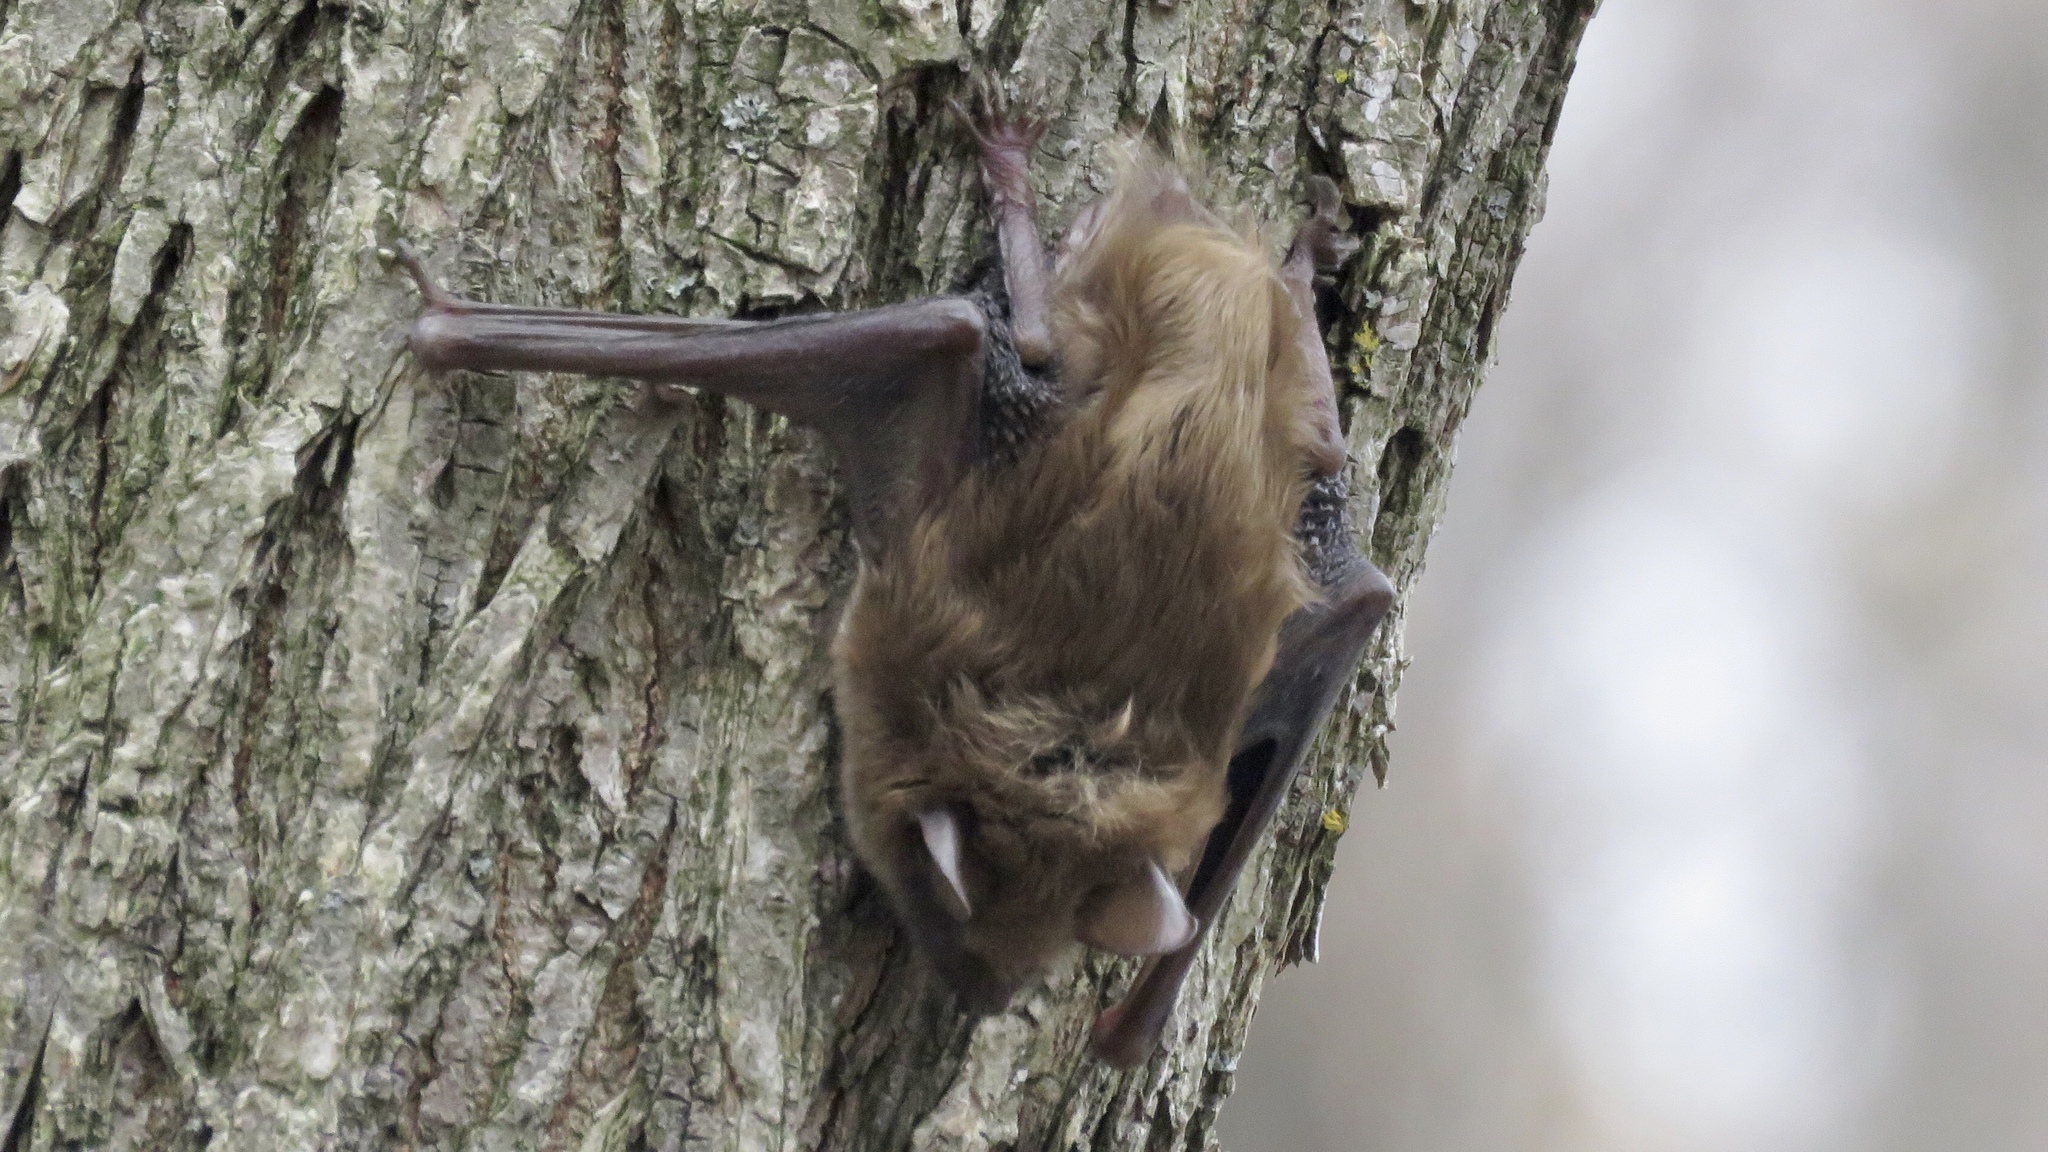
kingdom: Animalia
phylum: Chordata
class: Mammalia
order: Chiroptera
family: Vespertilionidae
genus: Eptesicus
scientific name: Eptesicus fuscus
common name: Big brown bat
